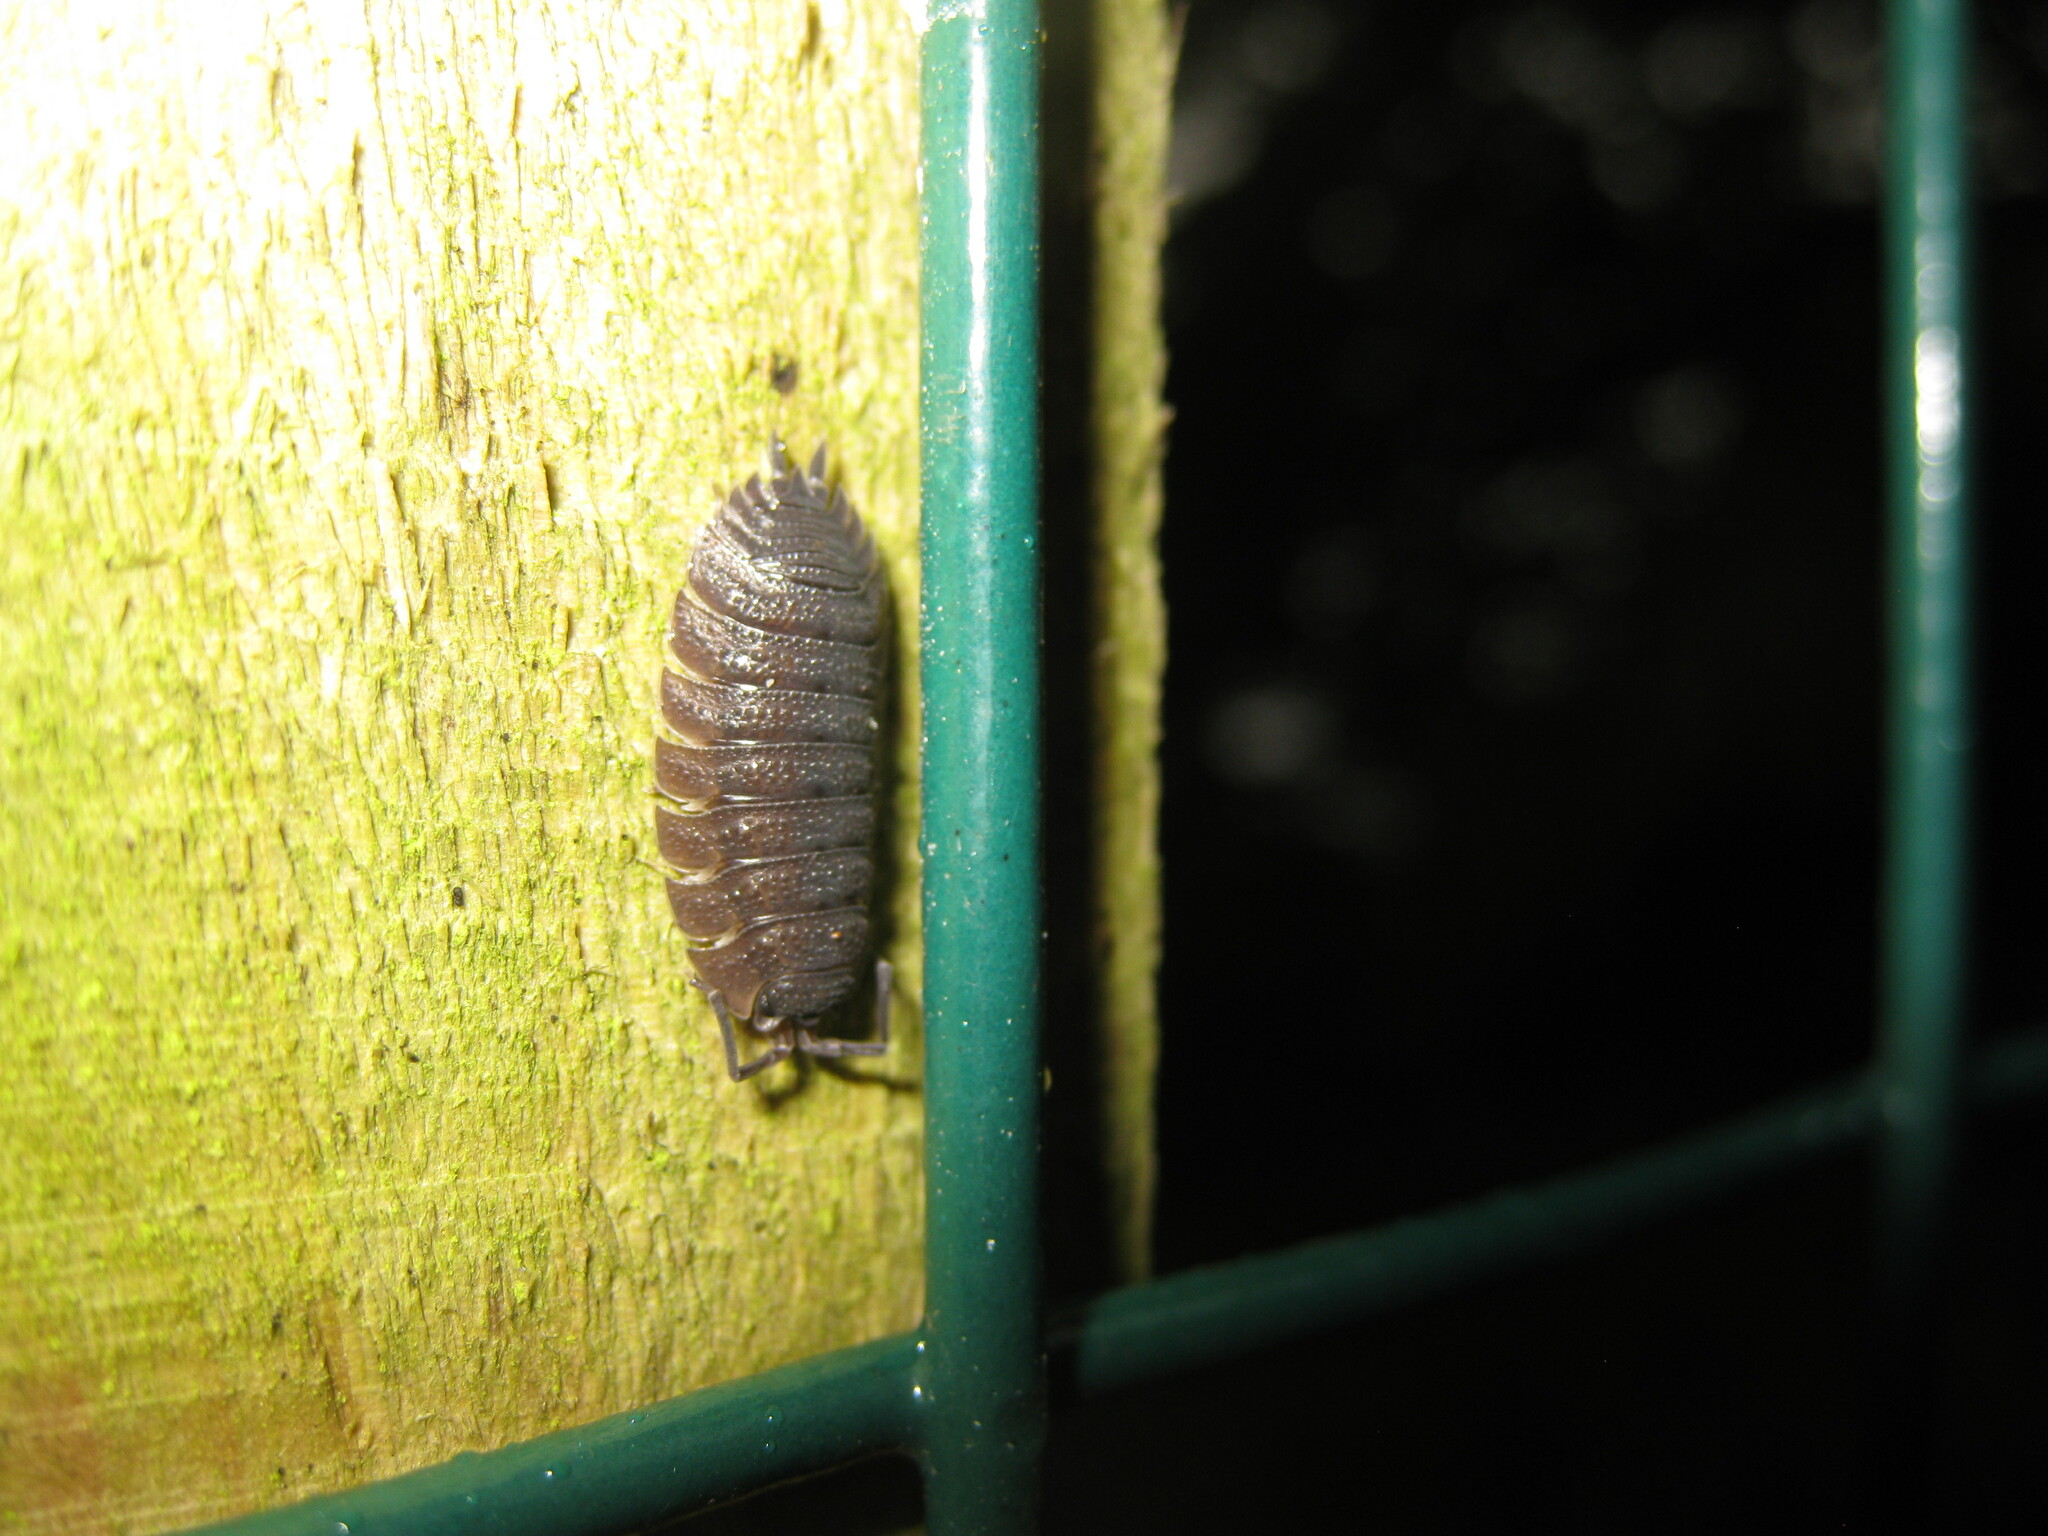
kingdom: Animalia
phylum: Arthropoda
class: Malacostraca
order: Isopoda
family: Porcellionidae
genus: Porcellio
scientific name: Porcellio scaber
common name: Common rough woodlouse
